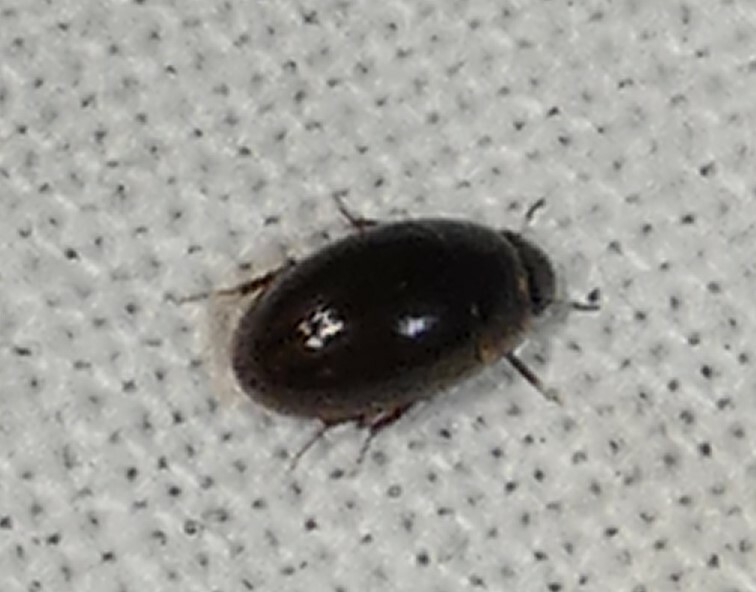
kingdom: Animalia
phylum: Arthropoda
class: Insecta
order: Coleoptera
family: Hydrophilidae
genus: Enochrus
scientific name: Enochrus
